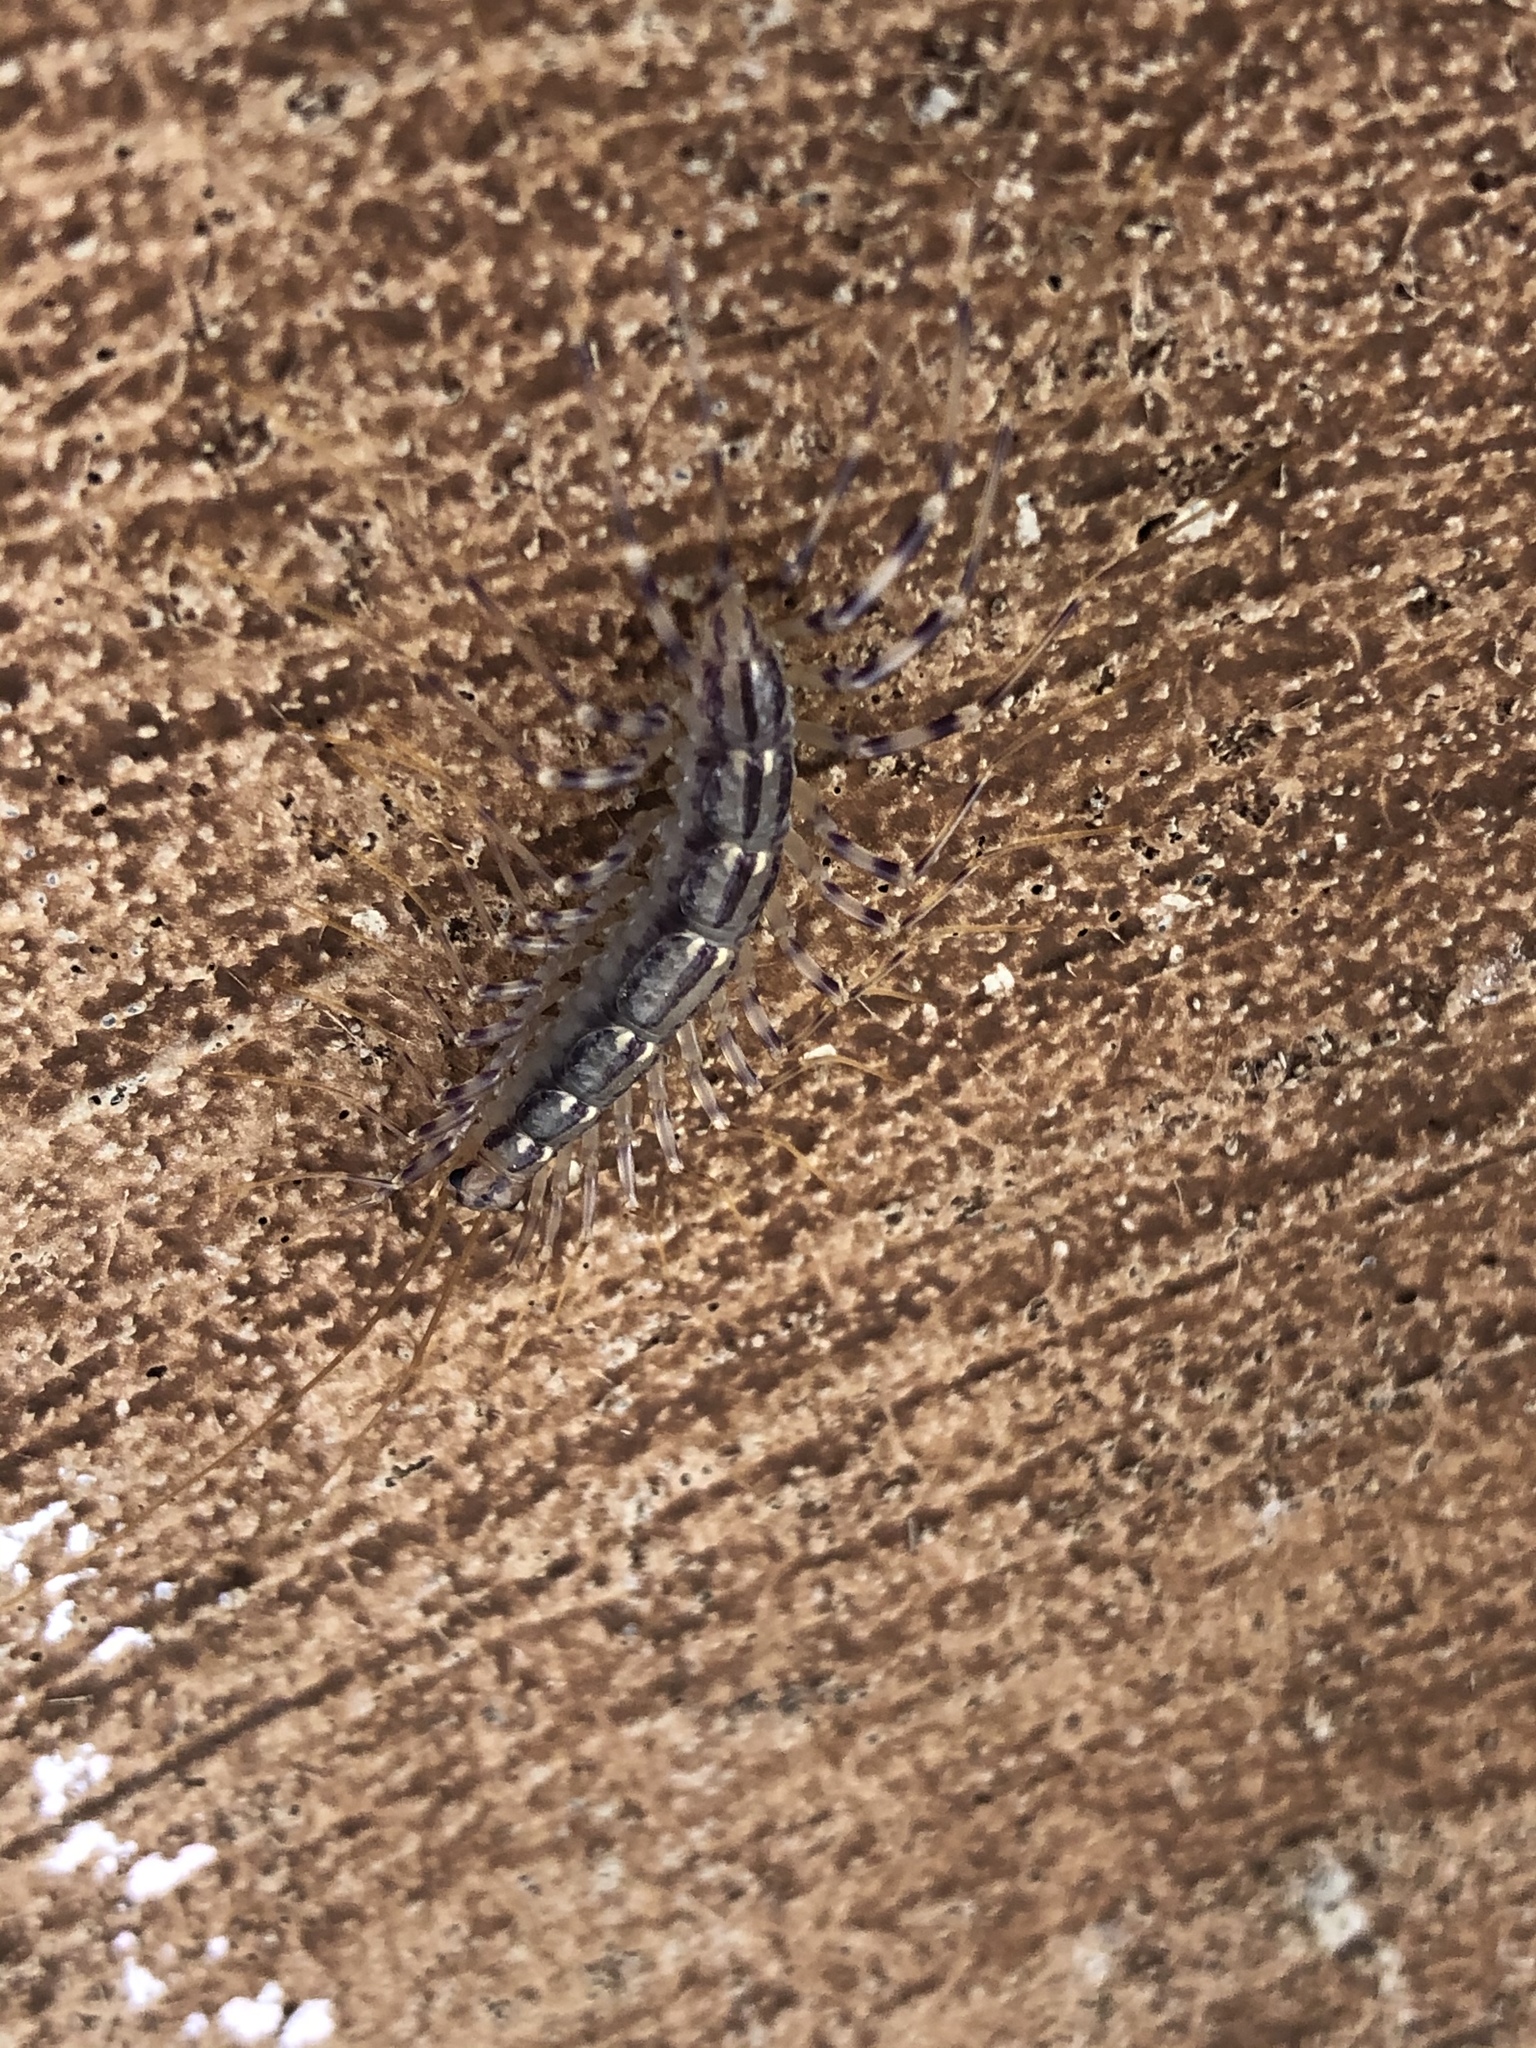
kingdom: Animalia
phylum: Arthropoda
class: Chilopoda
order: Scutigeromorpha
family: Scutigeridae
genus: Scutigera
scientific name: Scutigera coleoptrata
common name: House centipede
